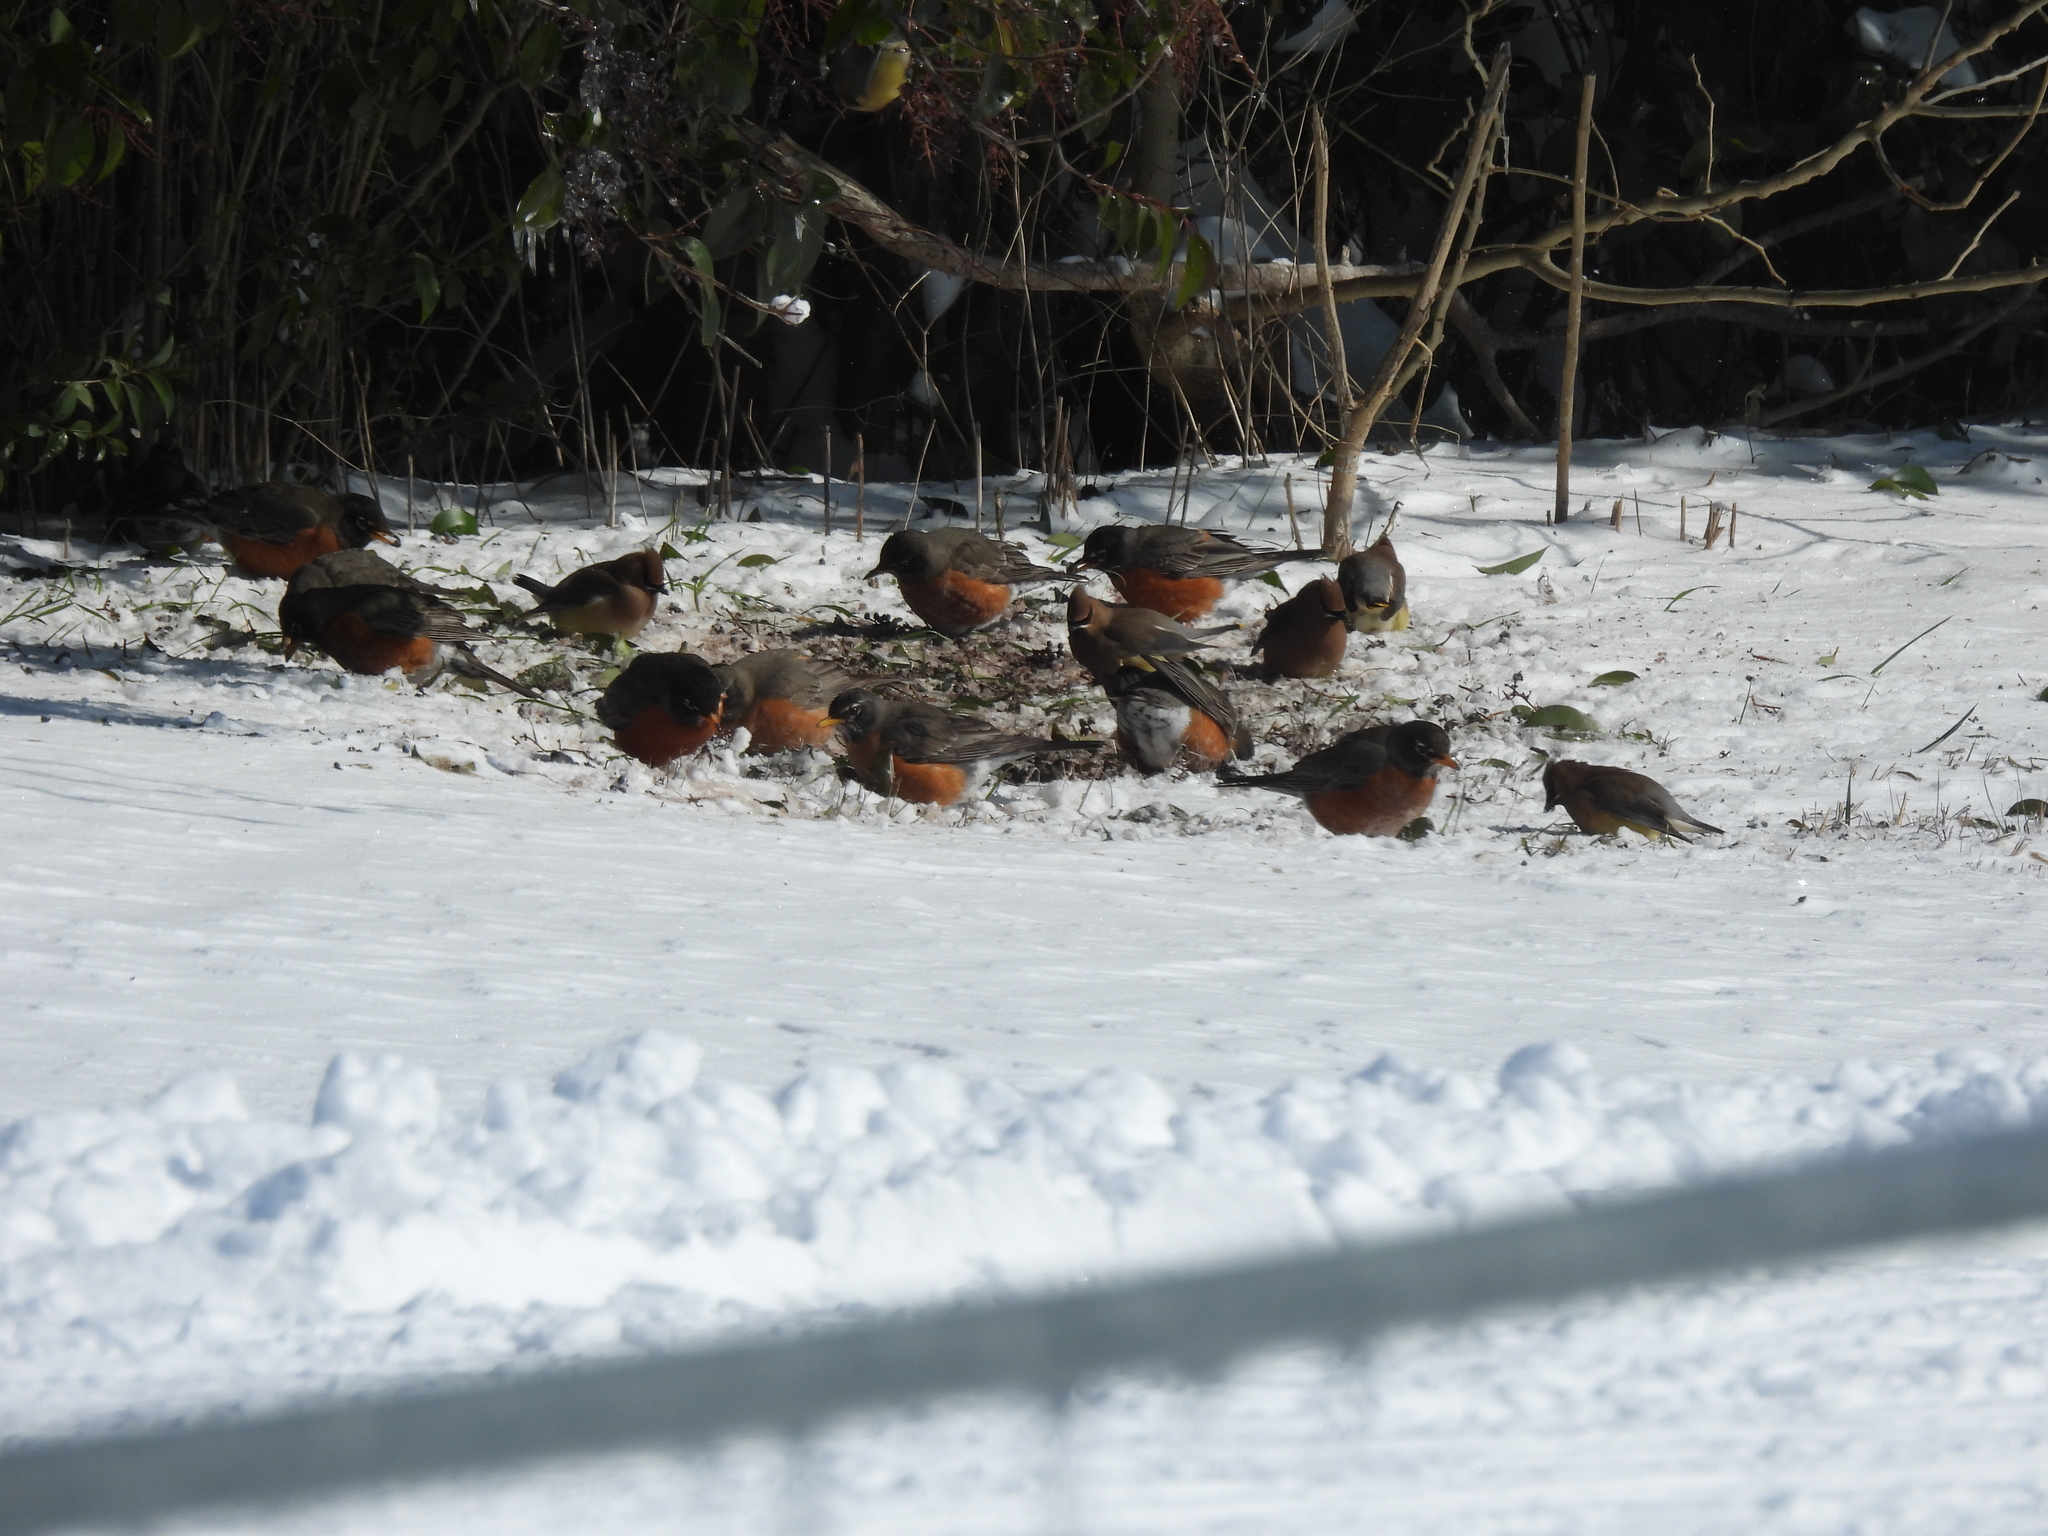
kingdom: Animalia
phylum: Chordata
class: Aves
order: Passeriformes
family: Turdidae
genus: Turdus
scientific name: Turdus migratorius
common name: American robin
